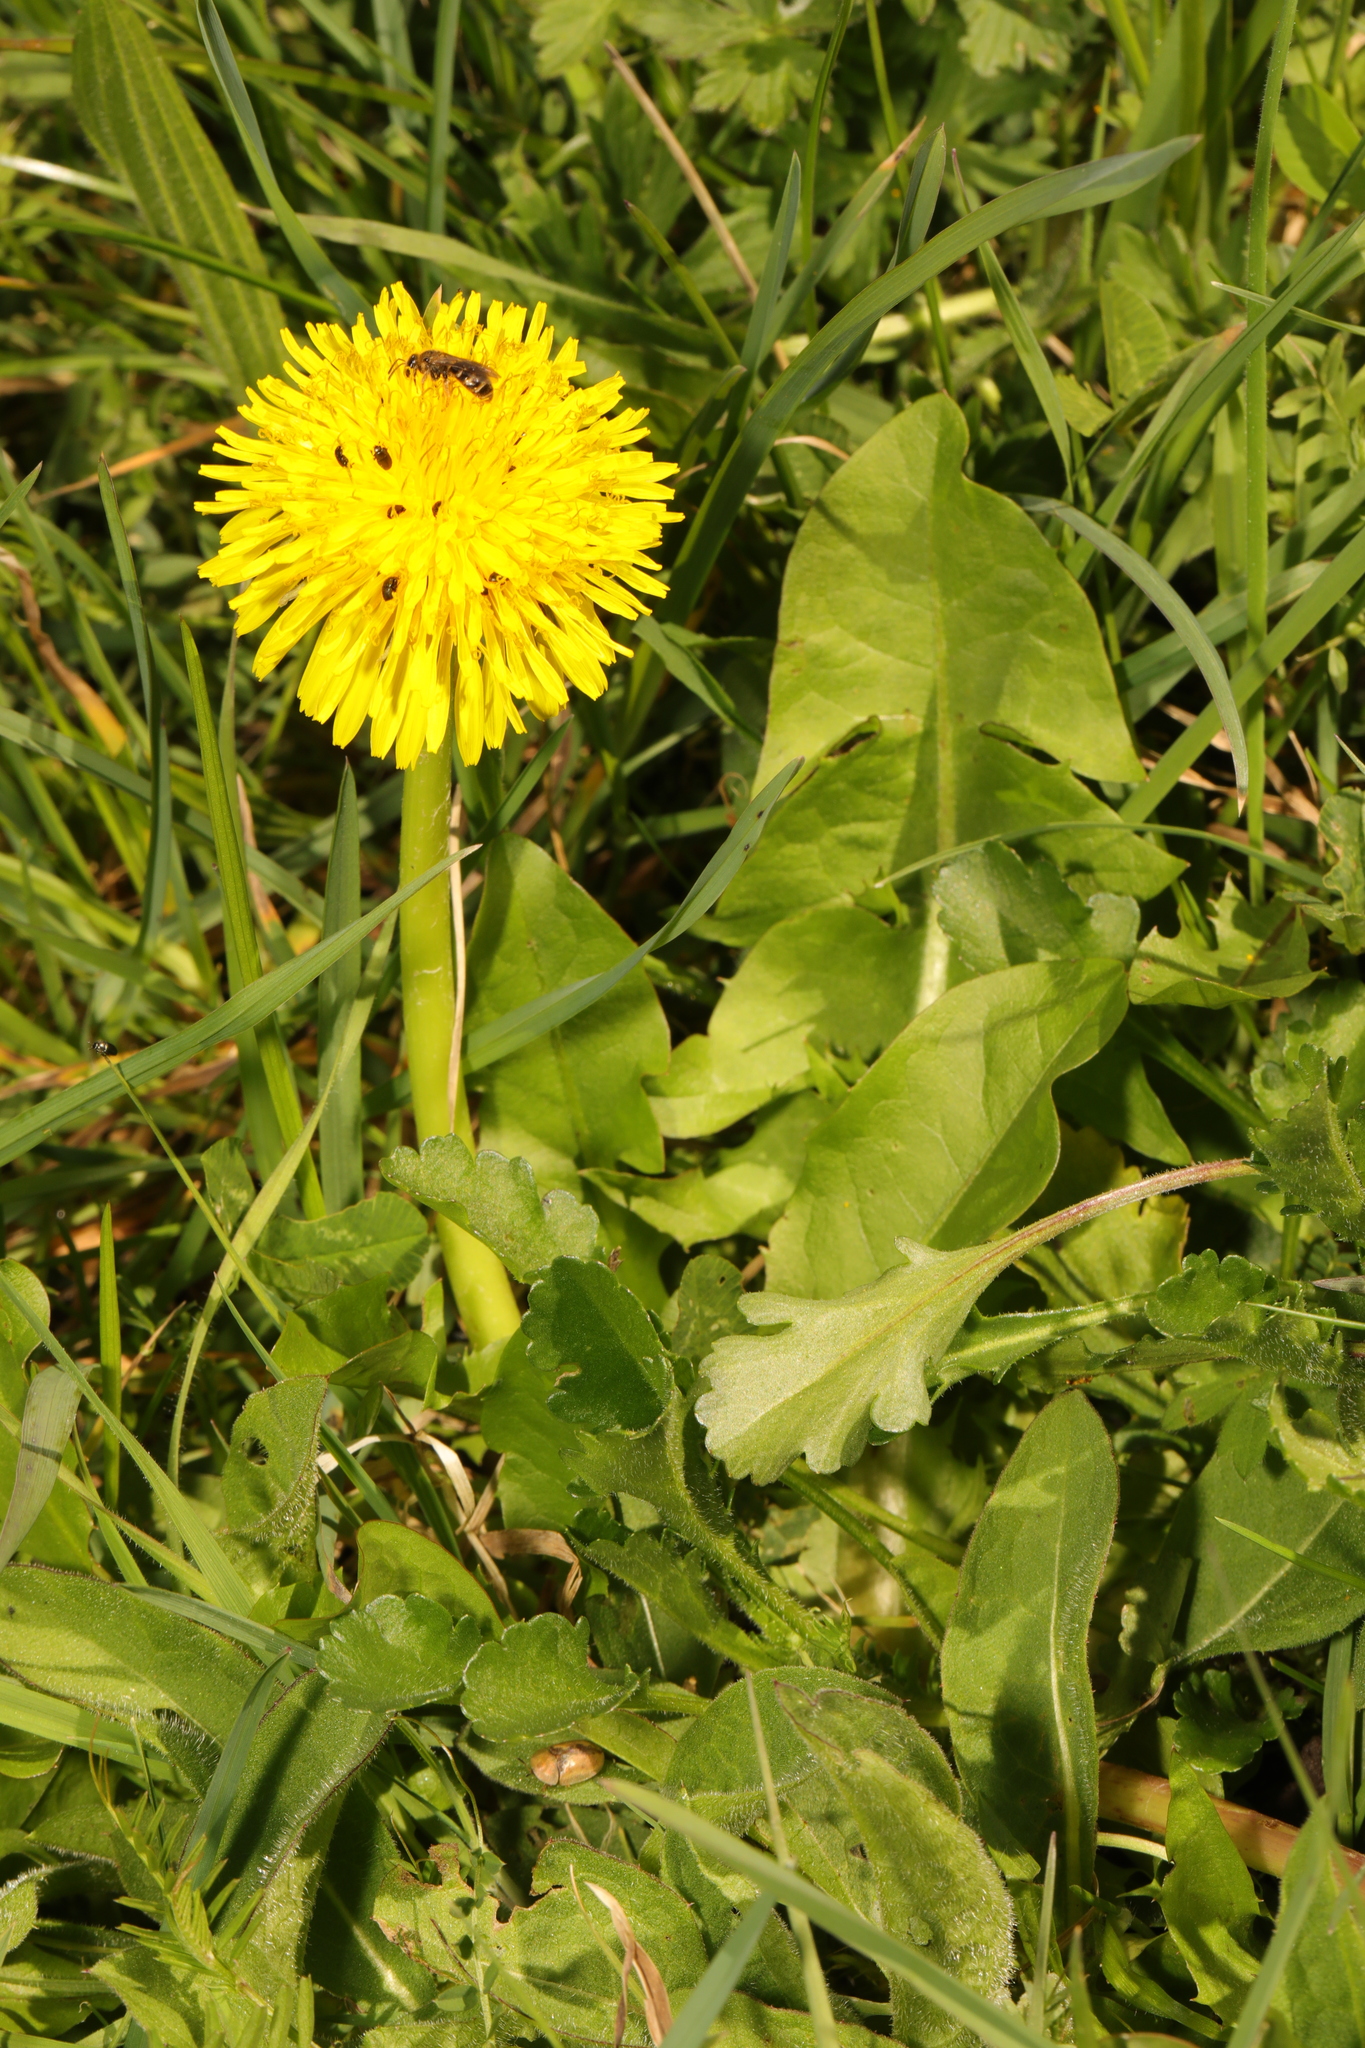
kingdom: Plantae
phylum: Tracheophyta
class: Magnoliopsida
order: Asterales
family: Asteraceae
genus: Taraxacum
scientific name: Taraxacum officinale
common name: Common dandelion
